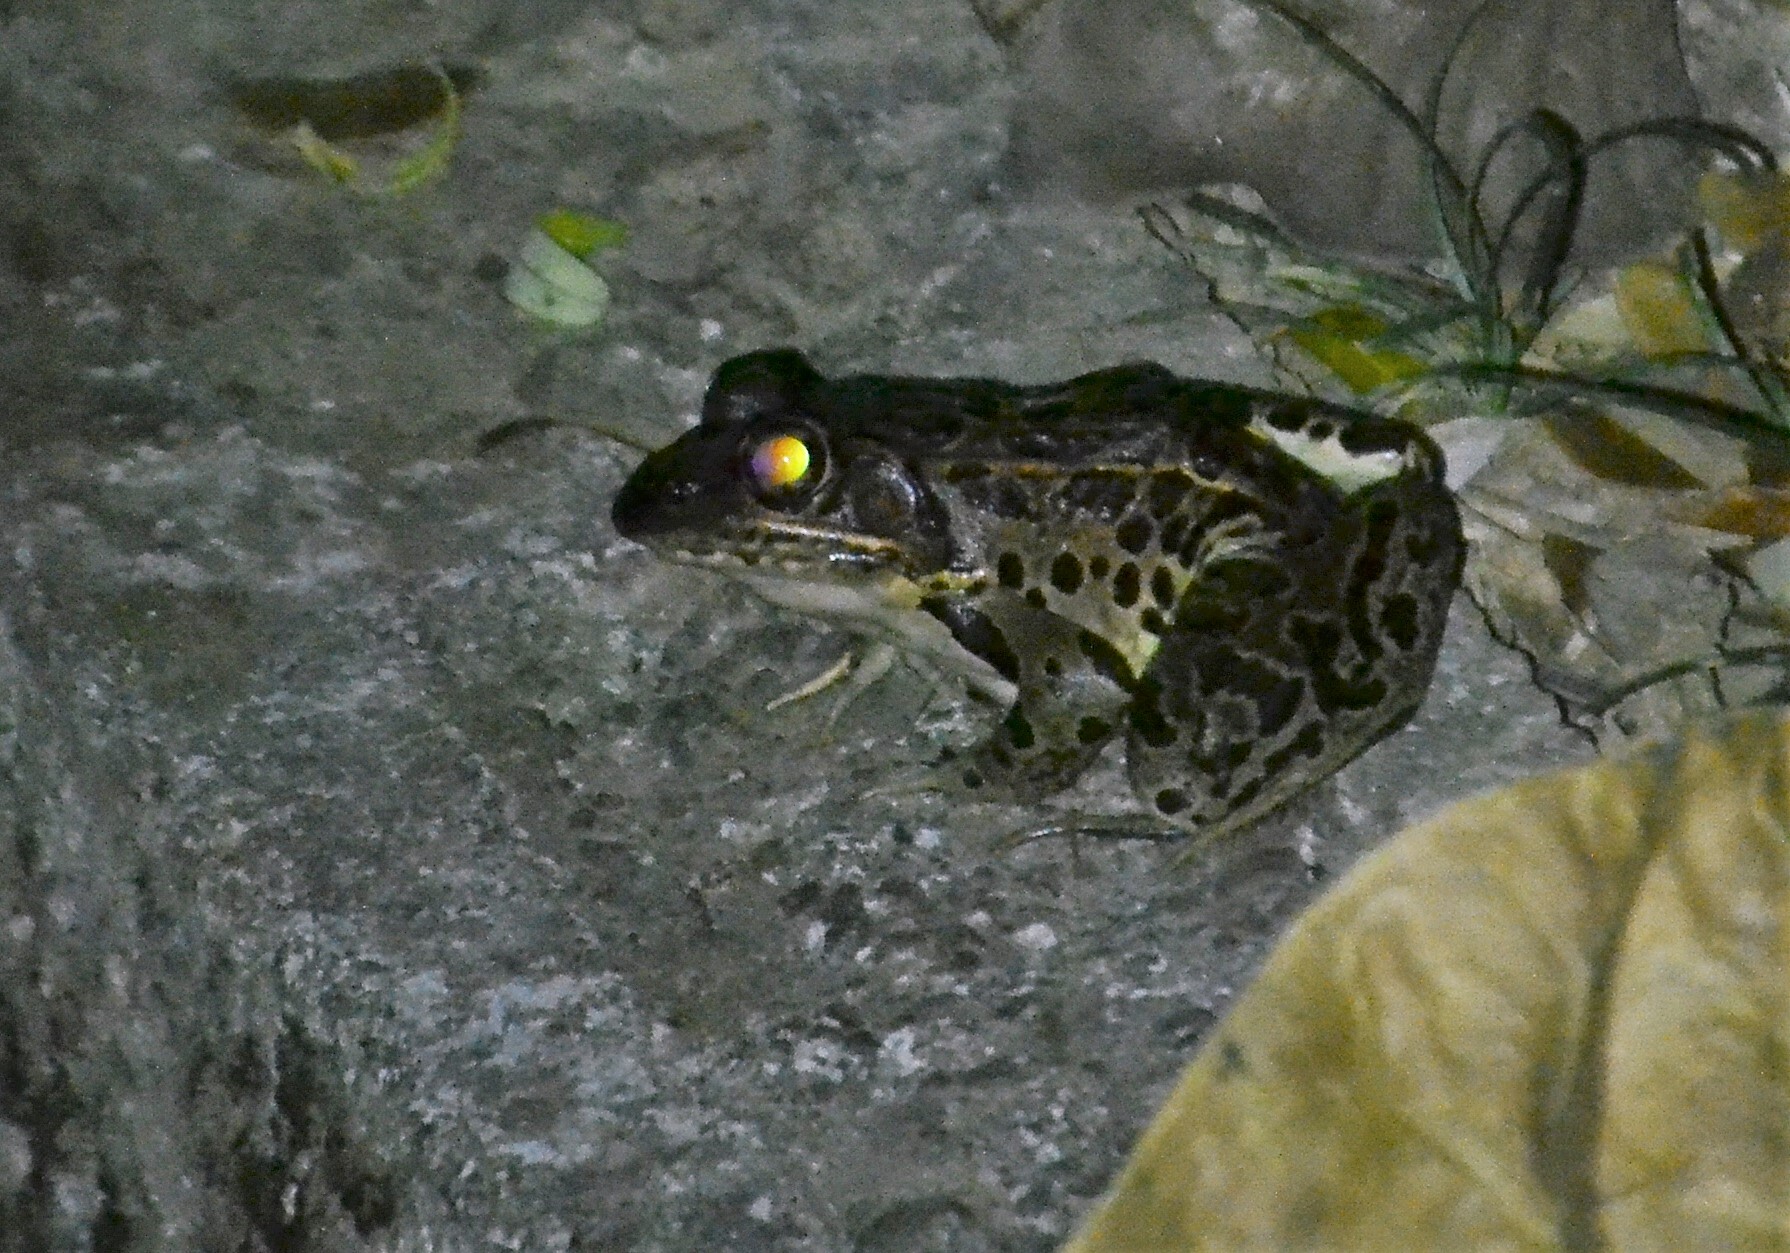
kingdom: Animalia
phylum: Chordata
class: Amphibia
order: Anura
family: Ranidae
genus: Lithobates
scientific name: Lithobates forreri
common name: Forrer's grass frog
